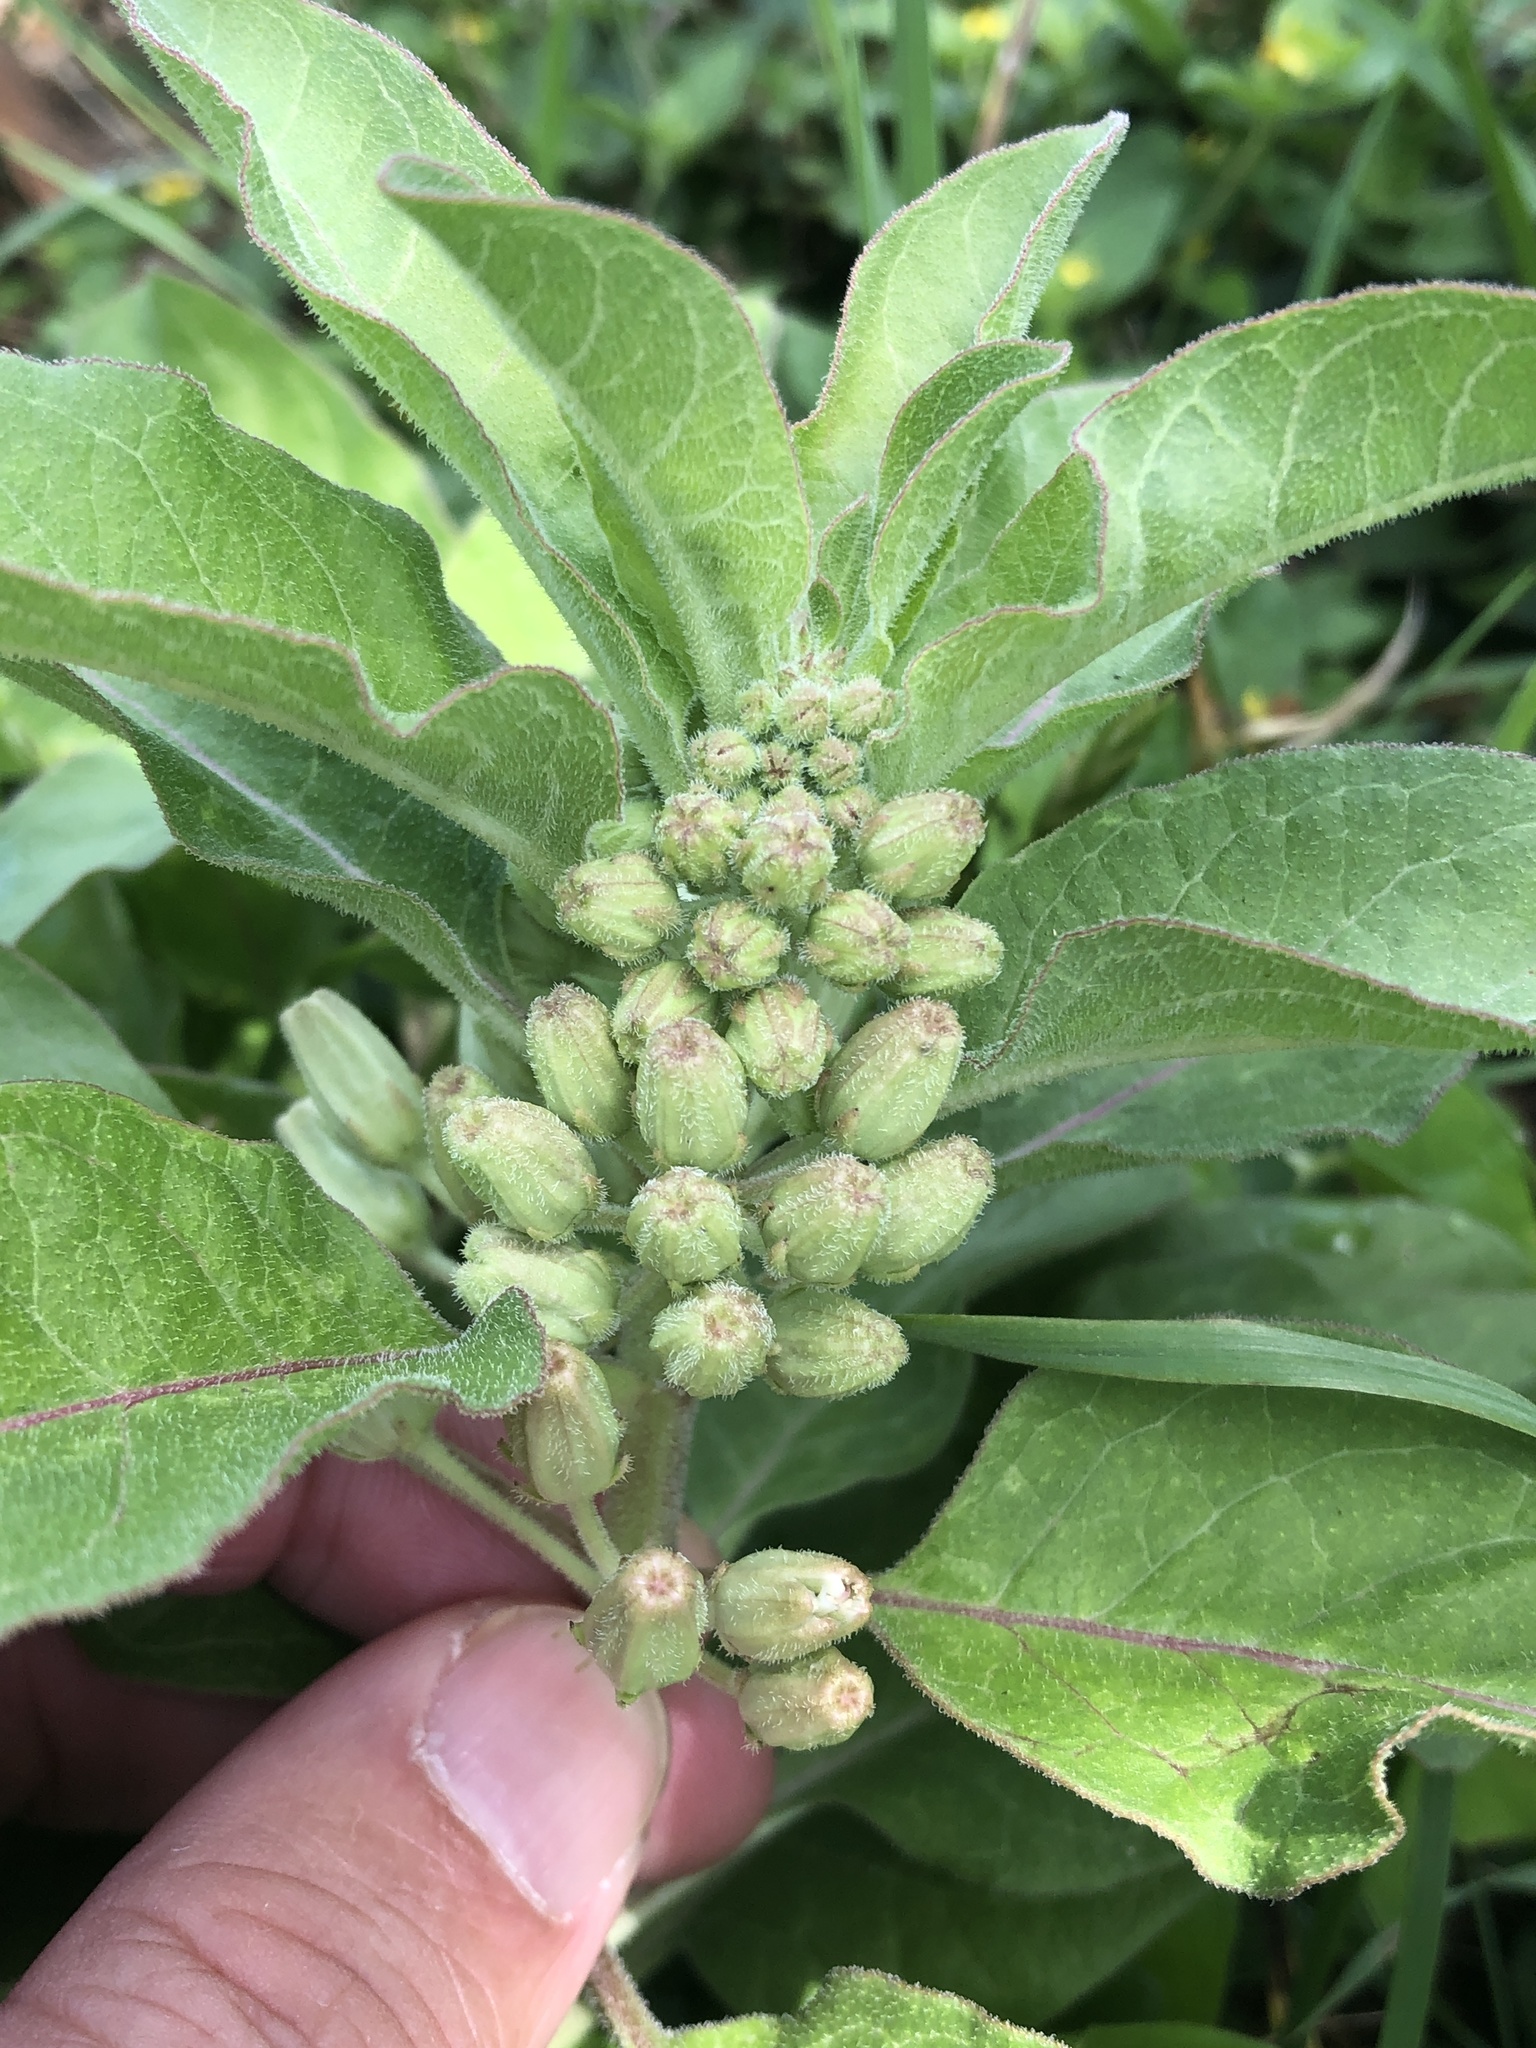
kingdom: Plantae
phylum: Tracheophyta
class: Magnoliopsida
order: Gentianales
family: Apocynaceae
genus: Asclepias
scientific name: Asclepias oenotheroides
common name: Zizotes milkweed
